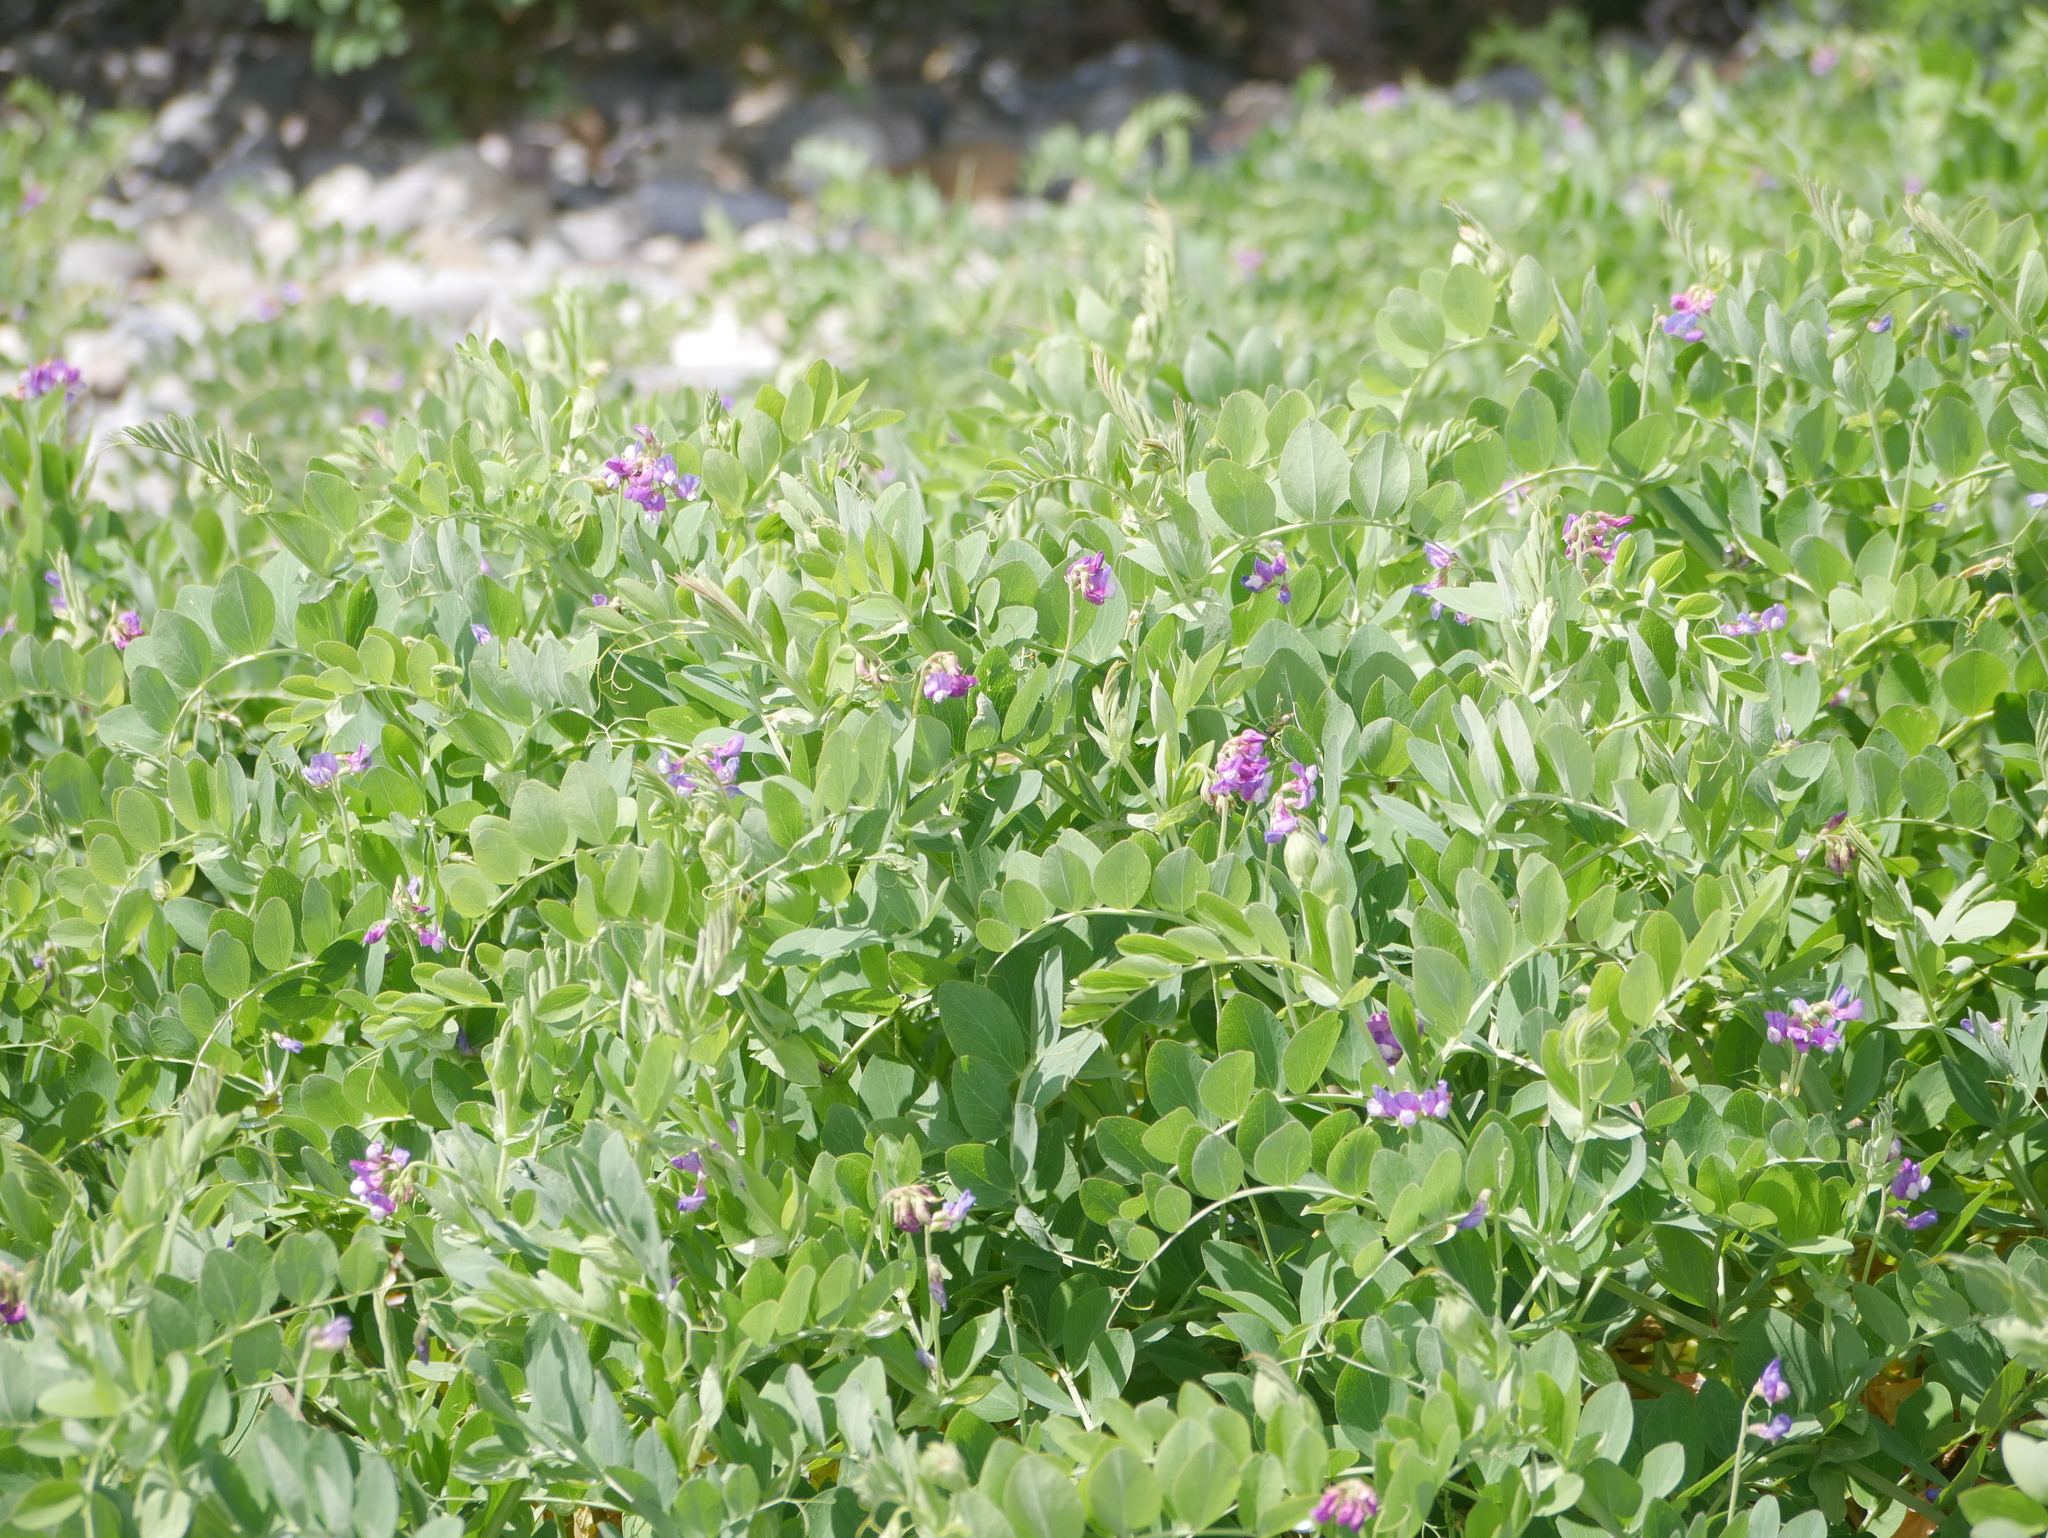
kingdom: Plantae
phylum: Tracheophyta
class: Magnoliopsida
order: Fabales
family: Fabaceae
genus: Lathyrus
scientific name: Lathyrus japonicus
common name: Sea pea
